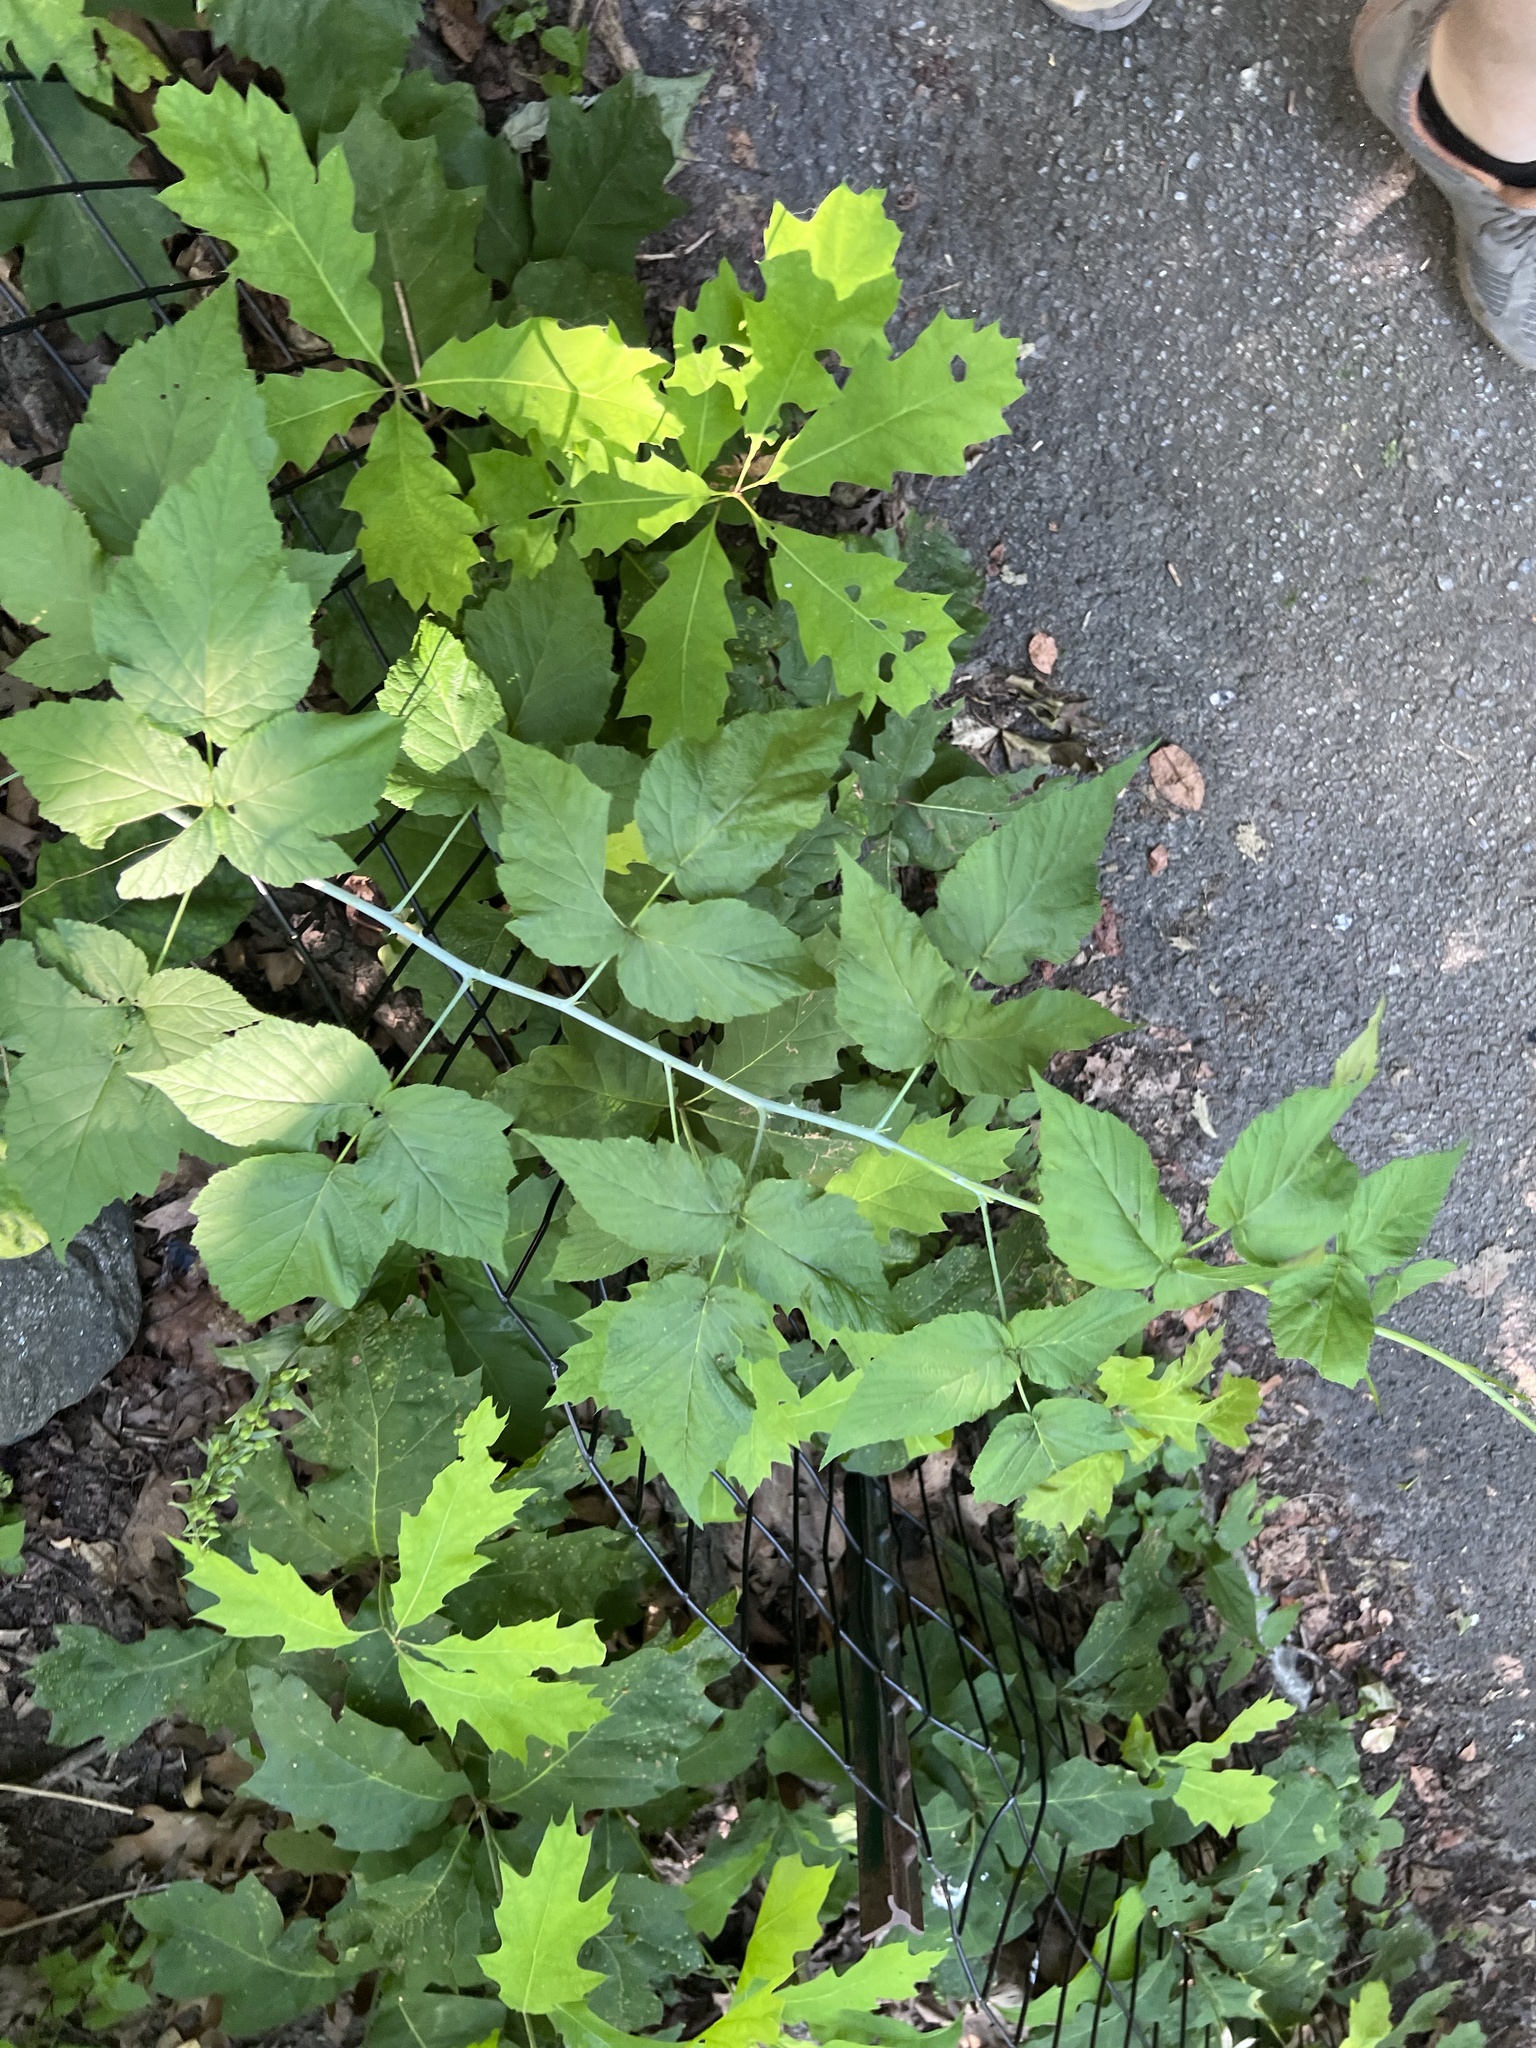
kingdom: Plantae
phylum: Tracheophyta
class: Magnoliopsida
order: Rosales
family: Rosaceae
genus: Rubus
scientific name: Rubus occidentalis
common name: Black raspberry
